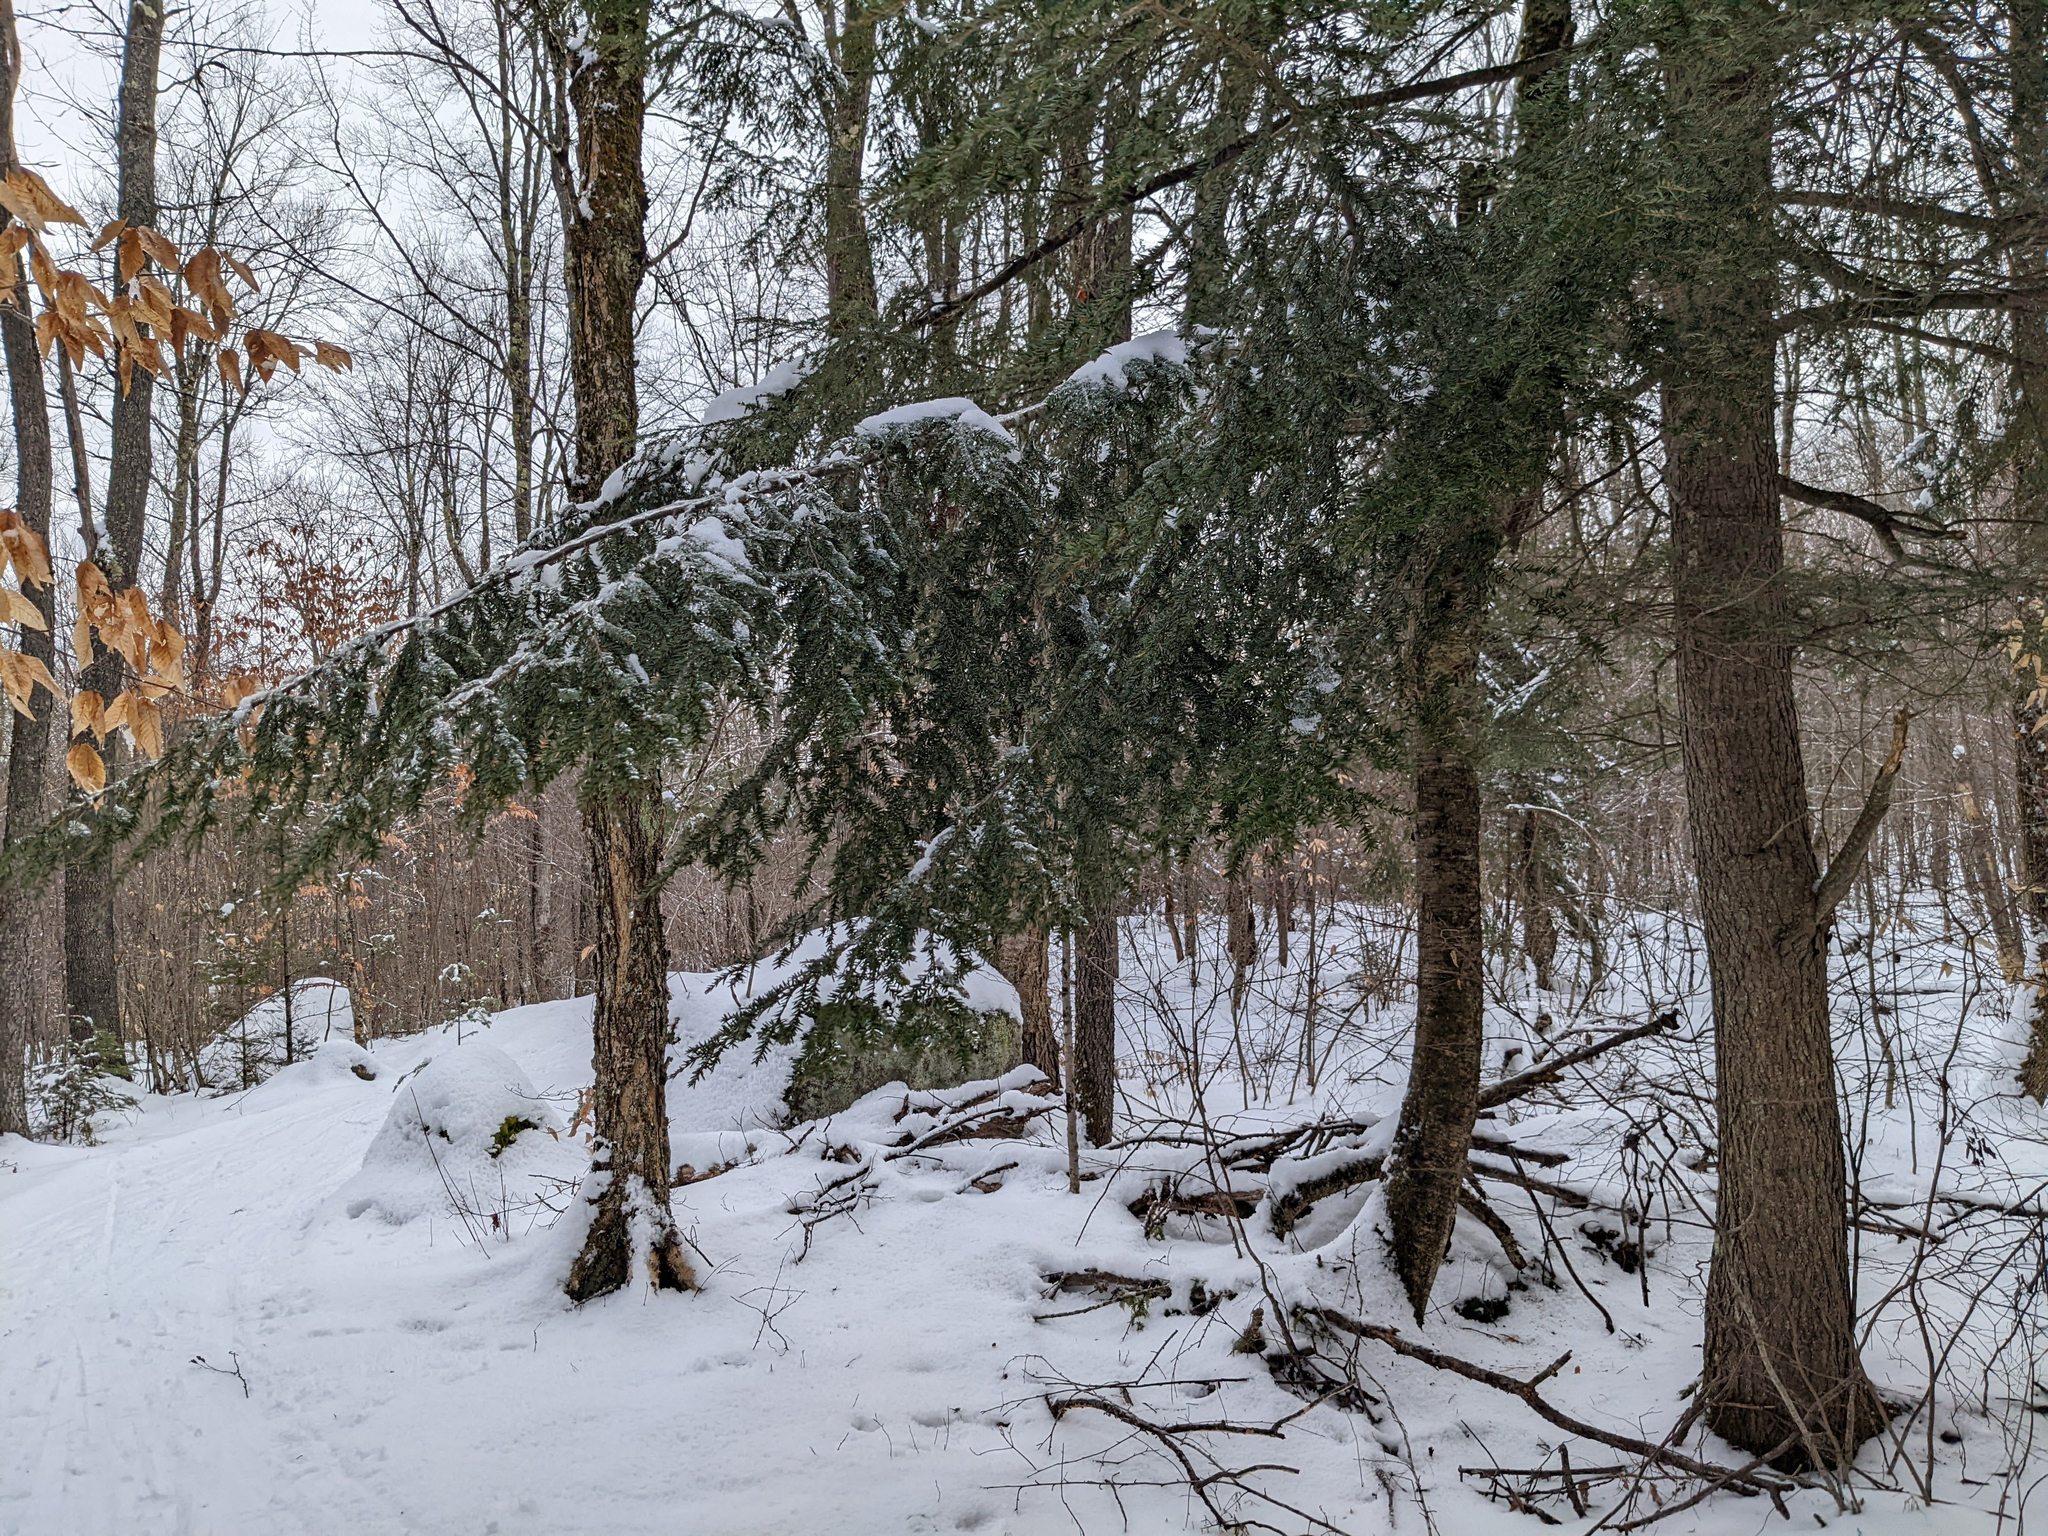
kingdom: Plantae
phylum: Tracheophyta
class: Pinopsida
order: Pinales
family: Pinaceae
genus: Tsuga
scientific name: Tsuga canadensis
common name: Eastern hemlock
